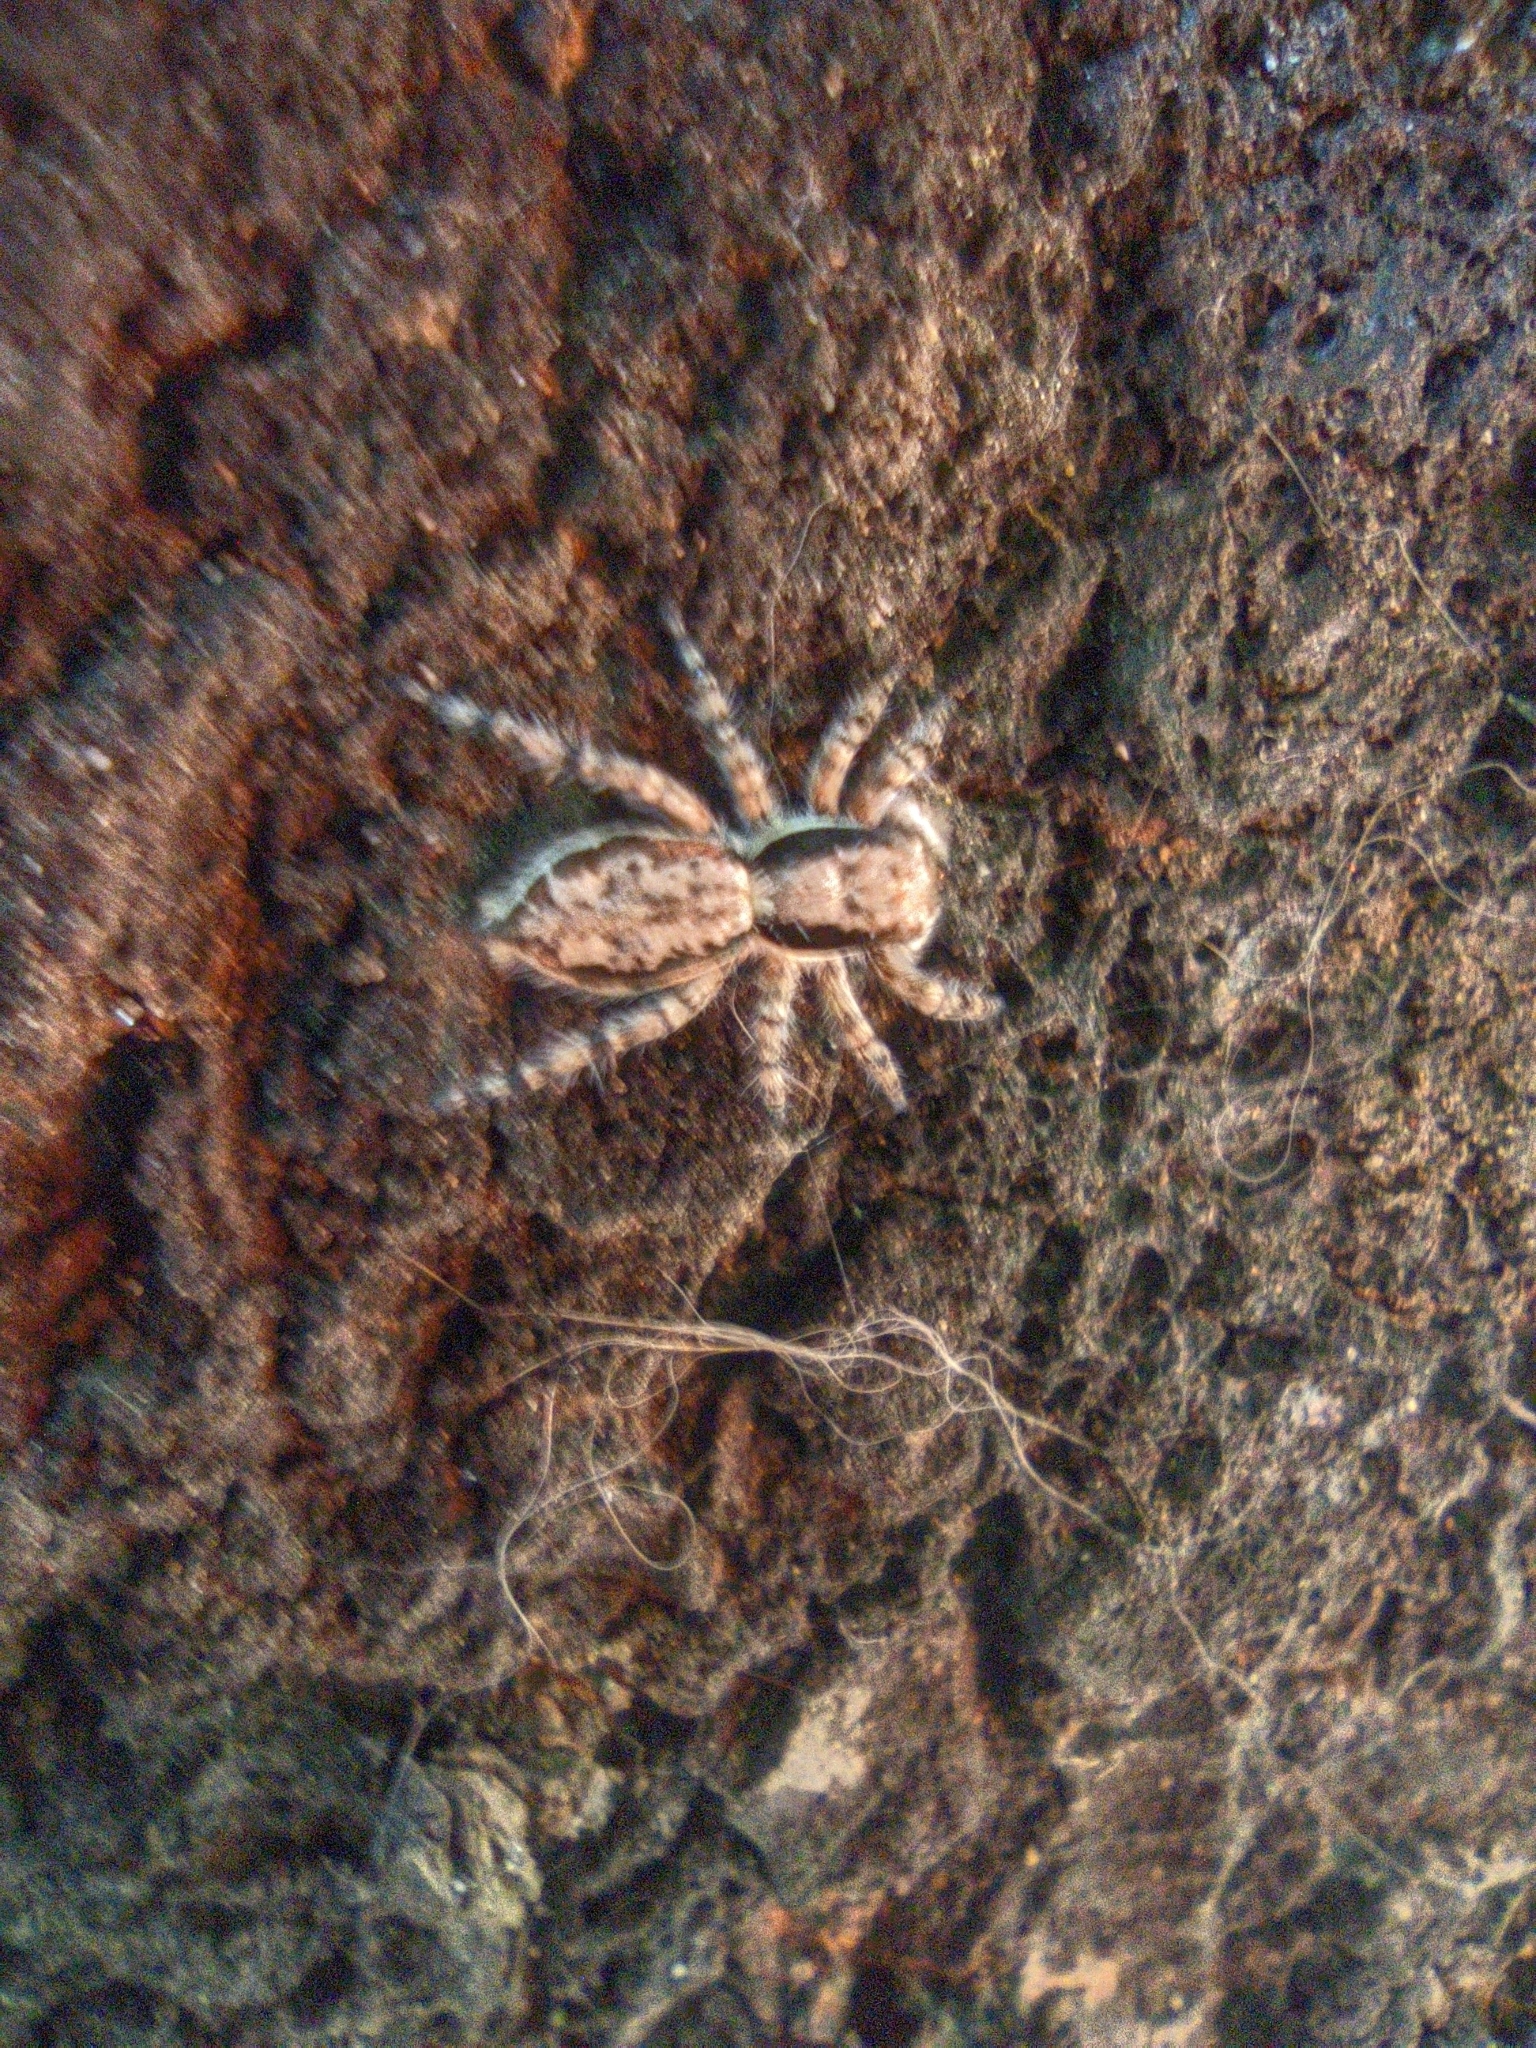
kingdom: Animalia
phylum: Arthropoda
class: Arachnida
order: Araneae
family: Salticidae
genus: Menemerus
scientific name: Menemerus bivittatus
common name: Gray wall jumper
